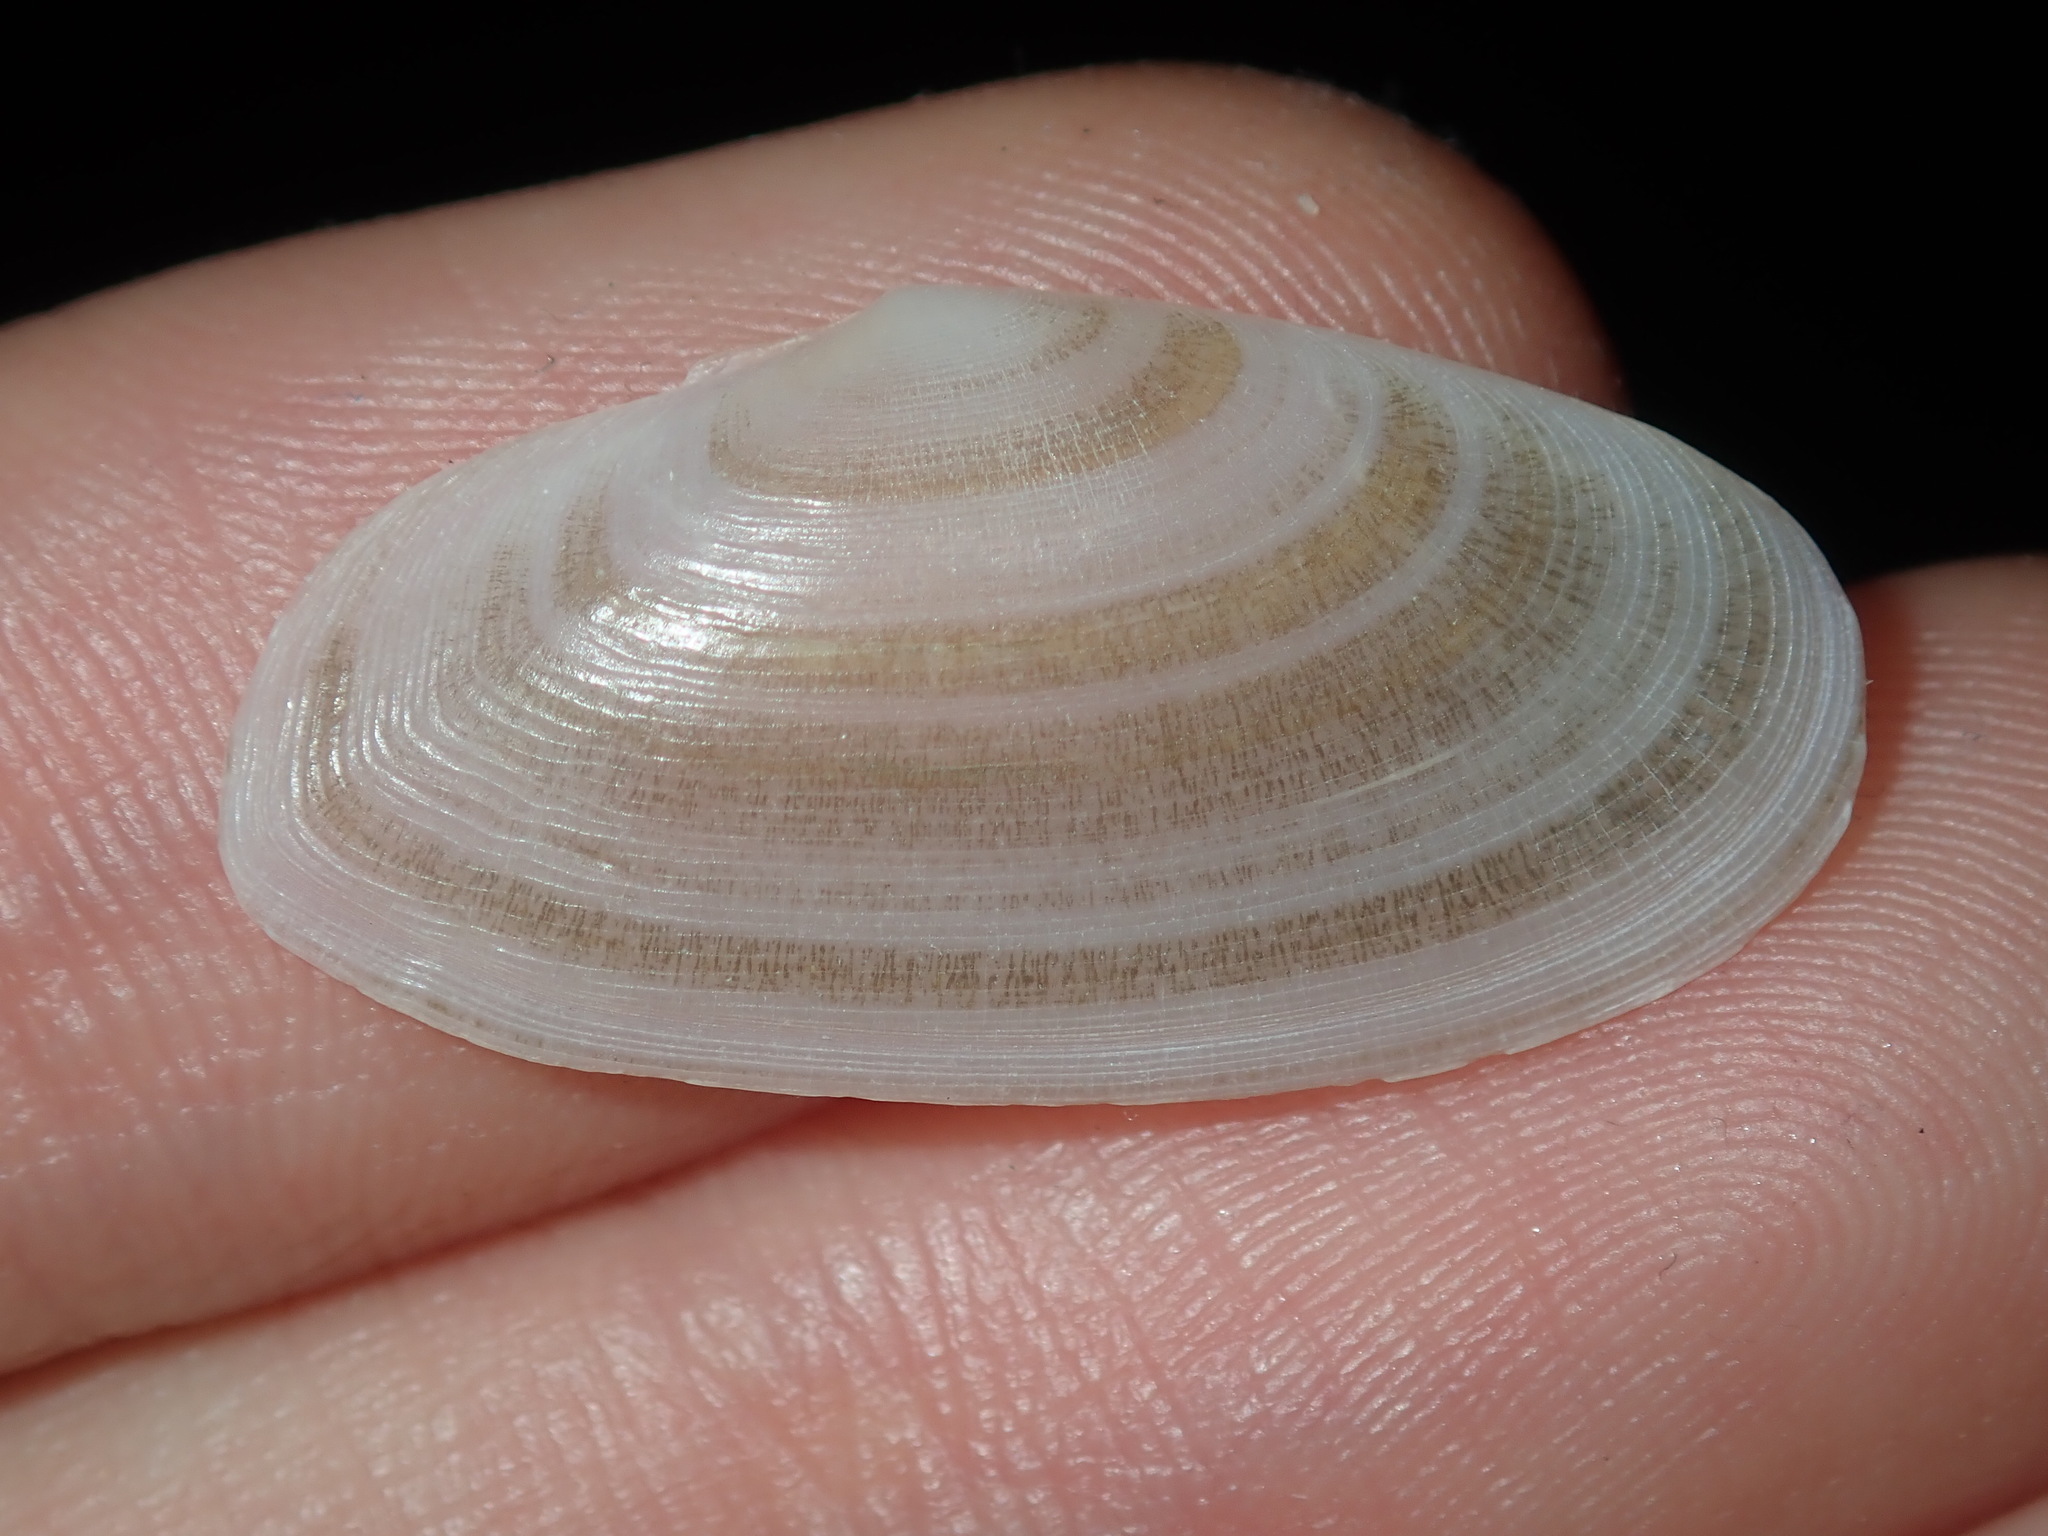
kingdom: Animalia
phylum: Mollusca
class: Bivalvia
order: Cardiida
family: Psammobiidae
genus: Gari
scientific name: Gari livida
